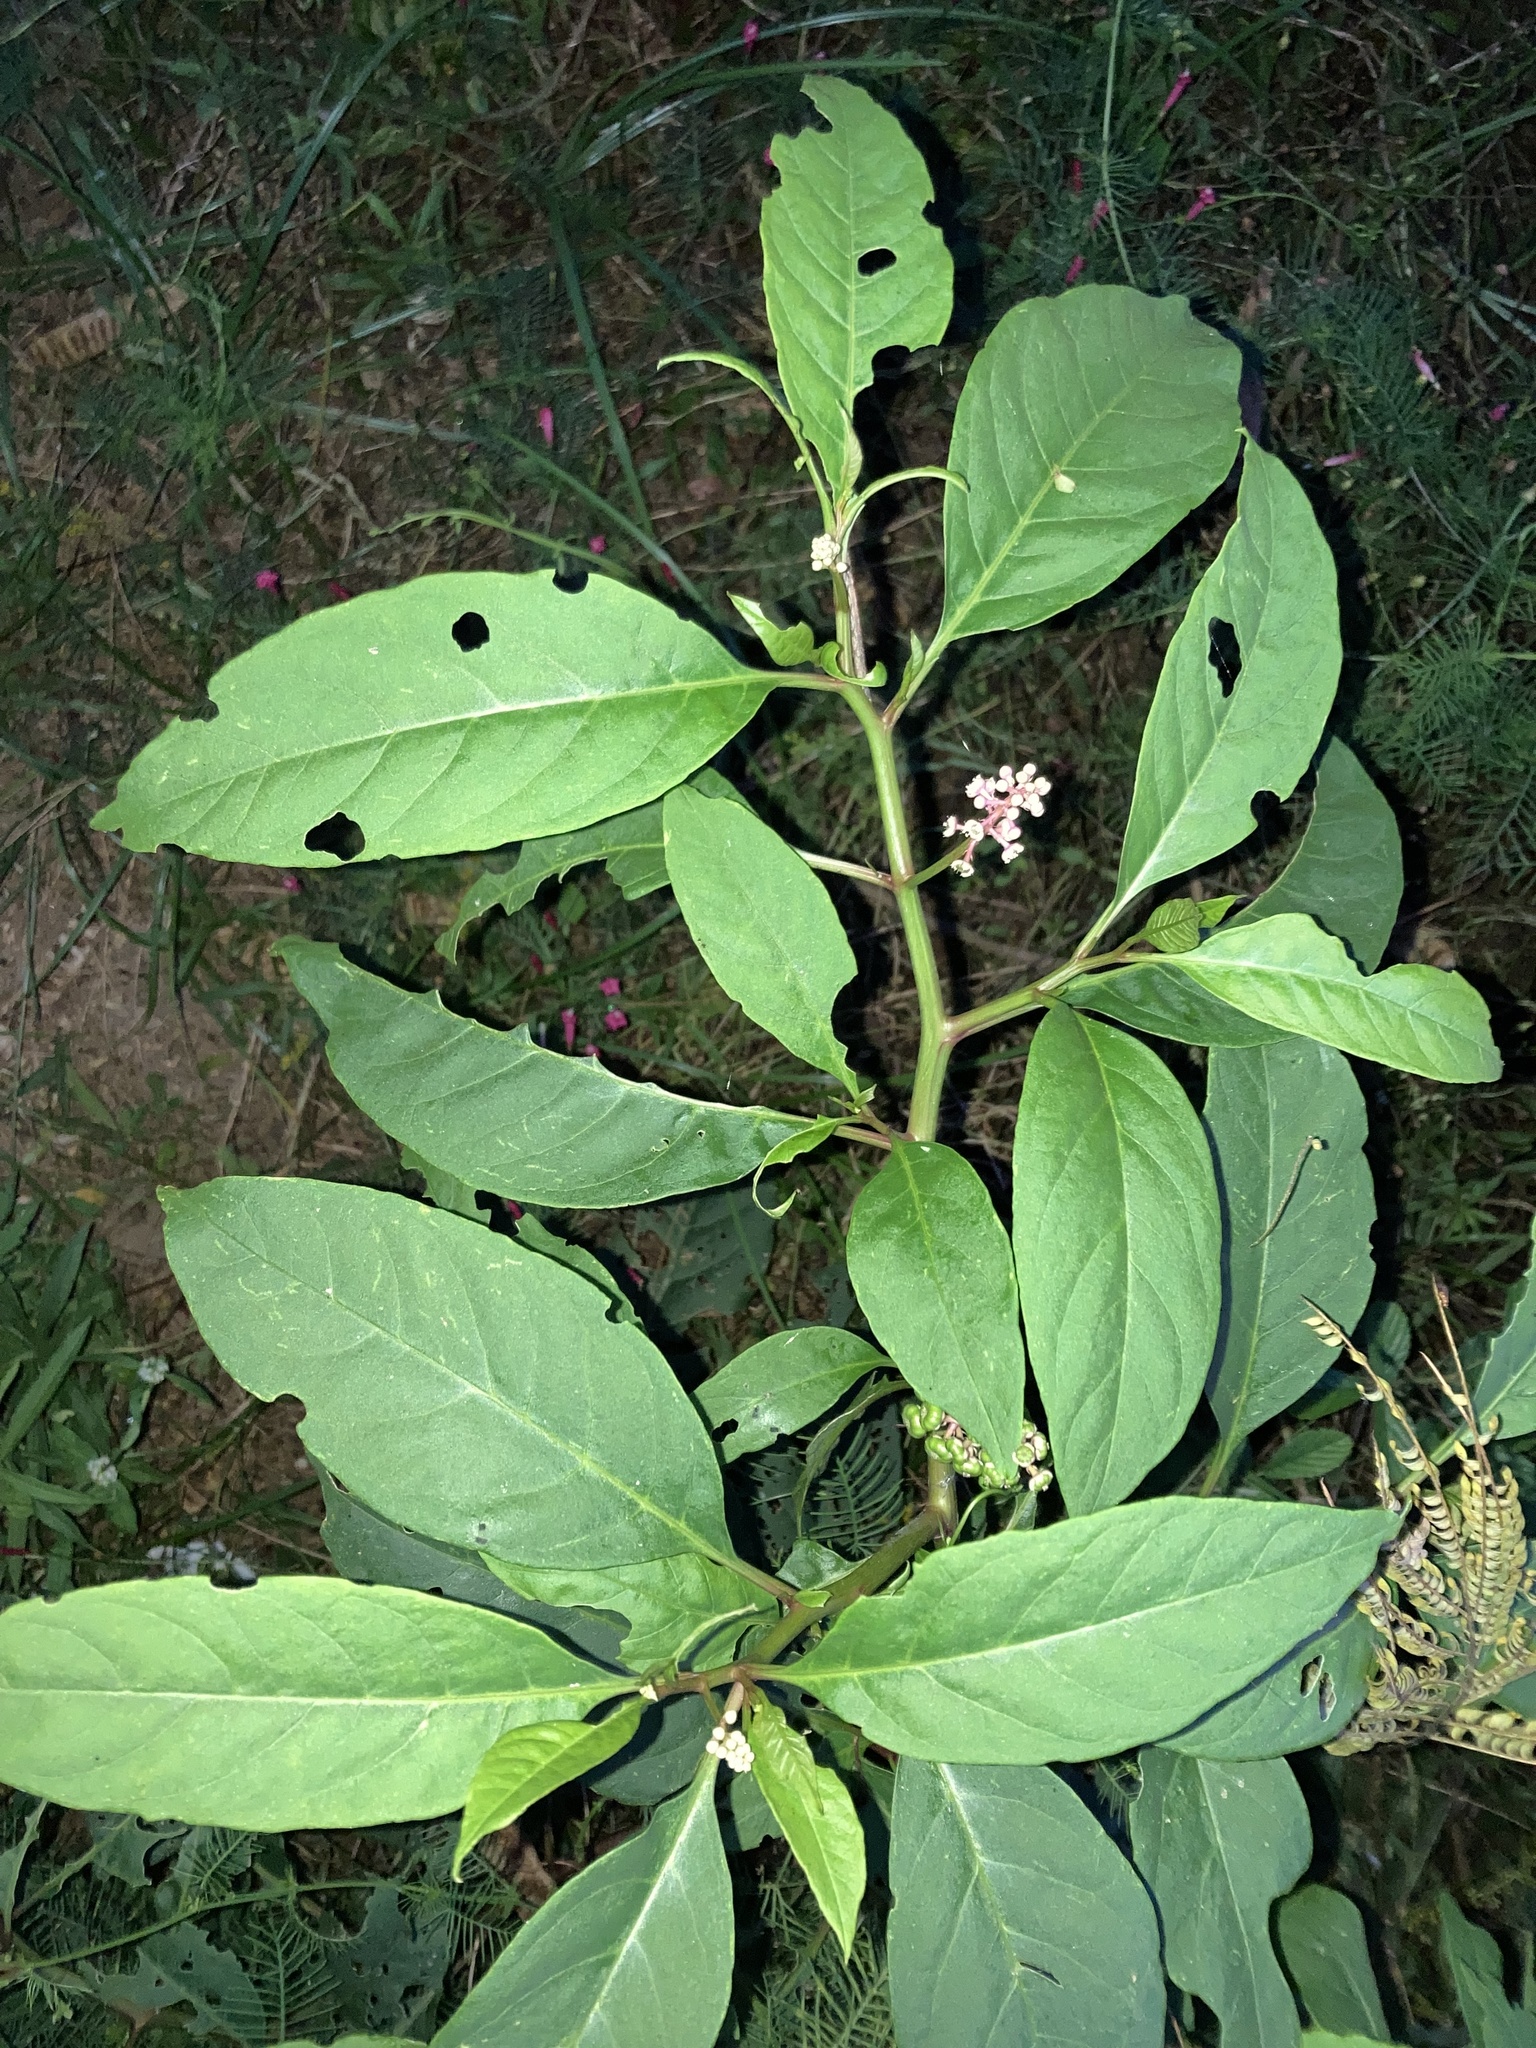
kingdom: Plantae
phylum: Tracheophyta
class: Magnoliopsida
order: Caryophyllales
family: Phytolaccaceae
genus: Phytolacca
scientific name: Phytolacca americana
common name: American pokeweed
